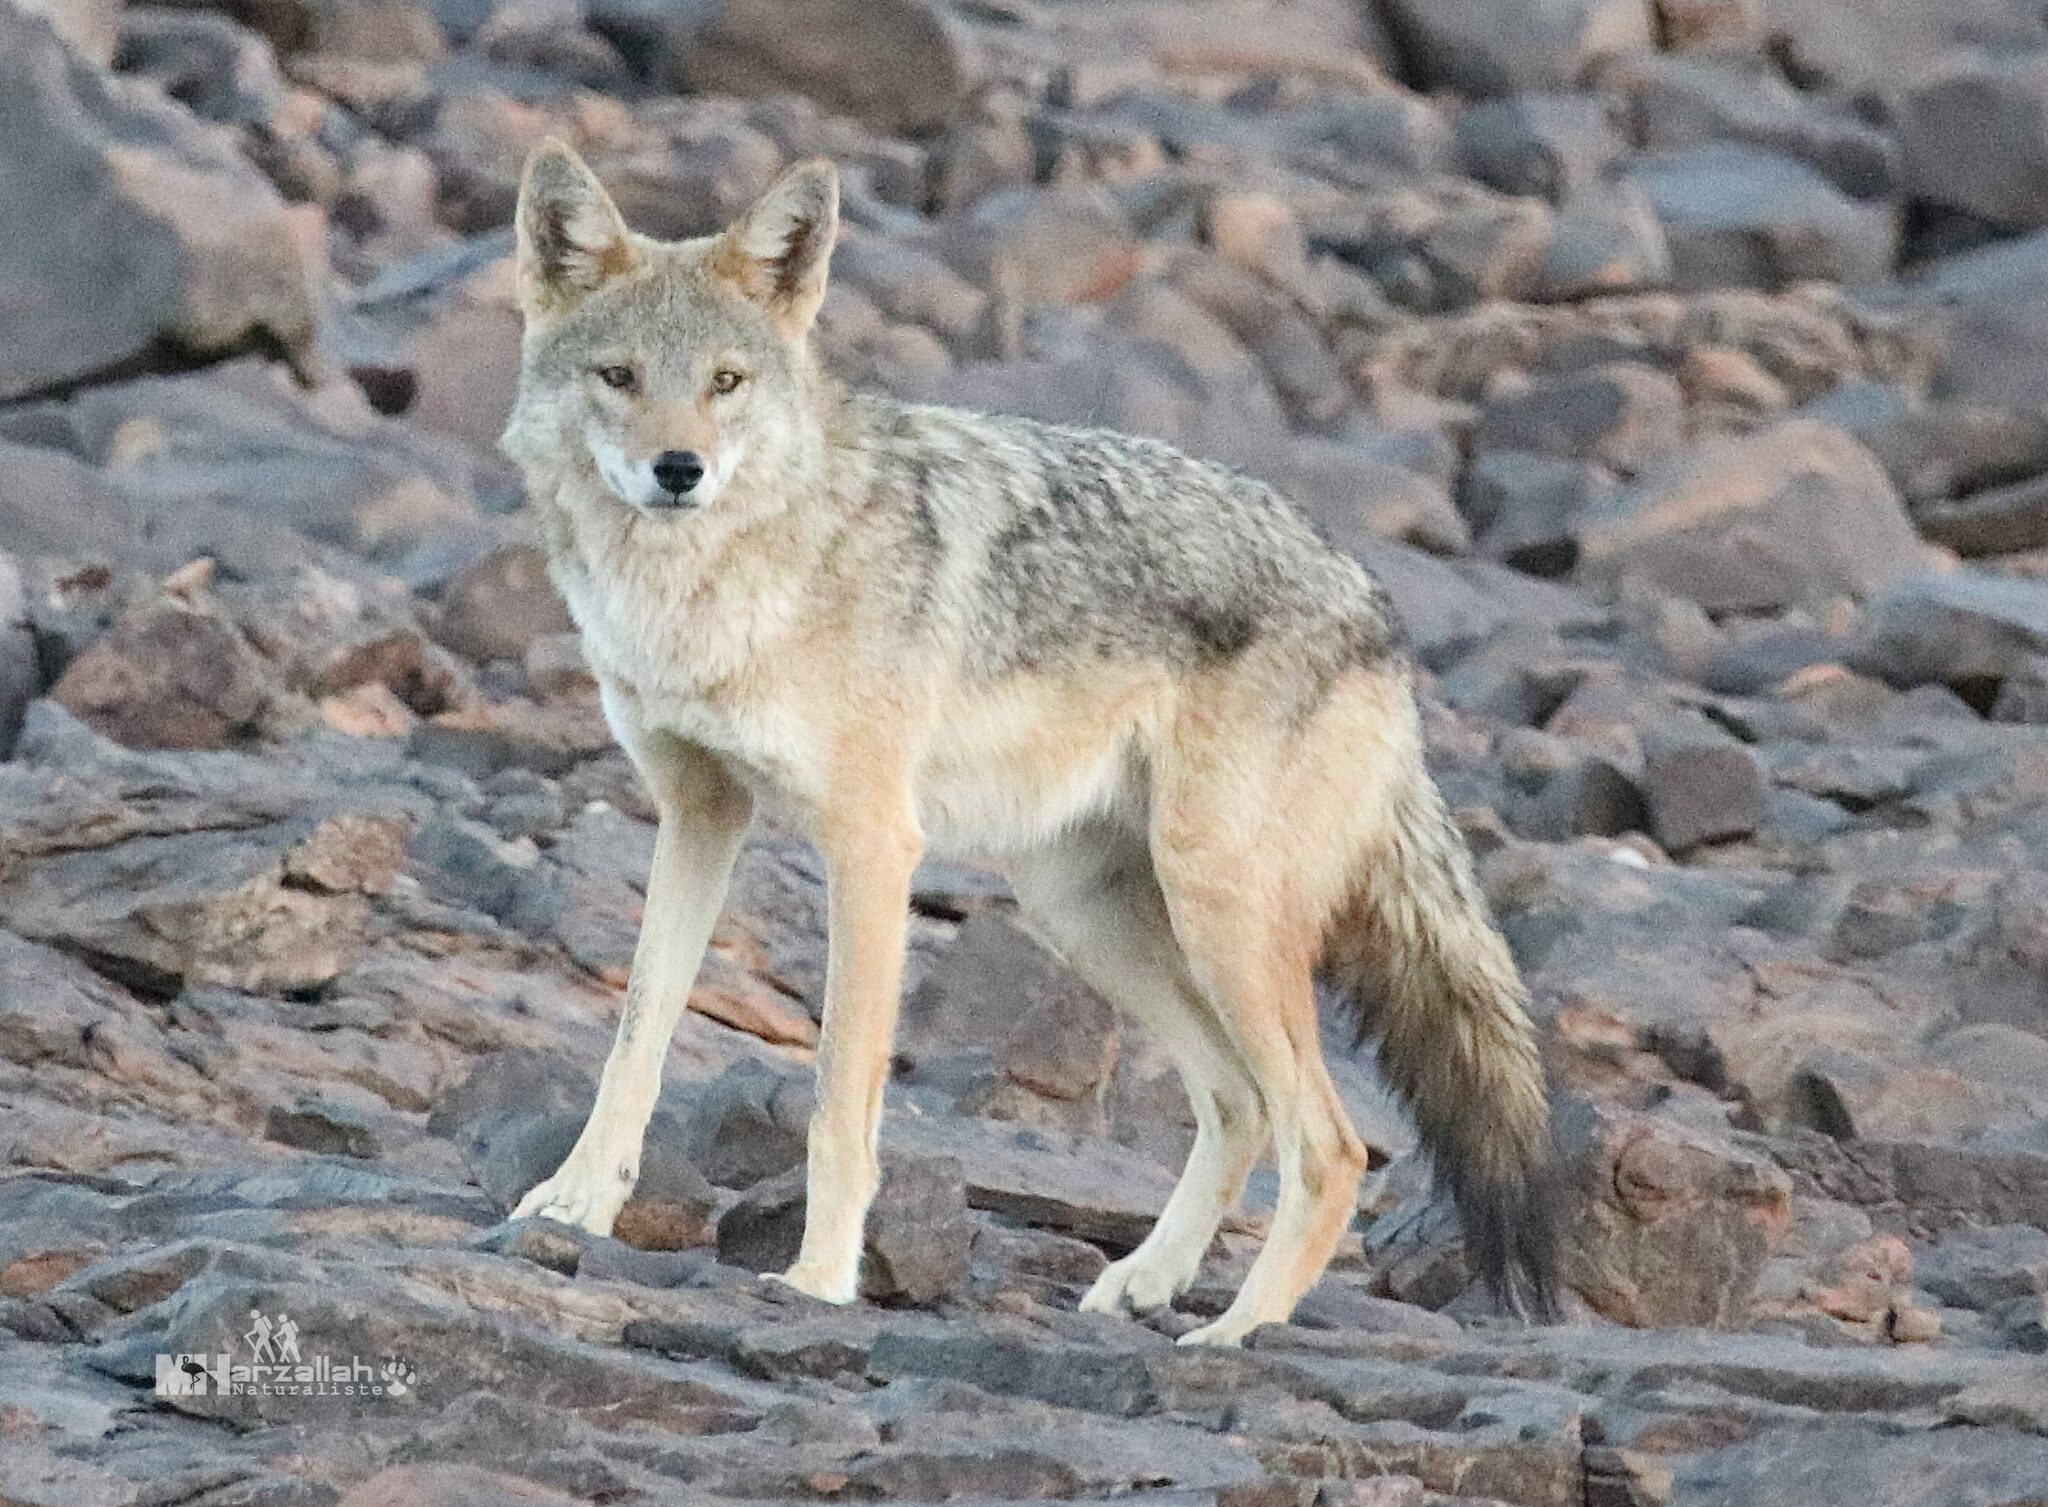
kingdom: Animalia
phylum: Chordata
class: Mammalia
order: Carnivora
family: Canidae
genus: Canis
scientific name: Canis lupaster
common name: African golden wolf
